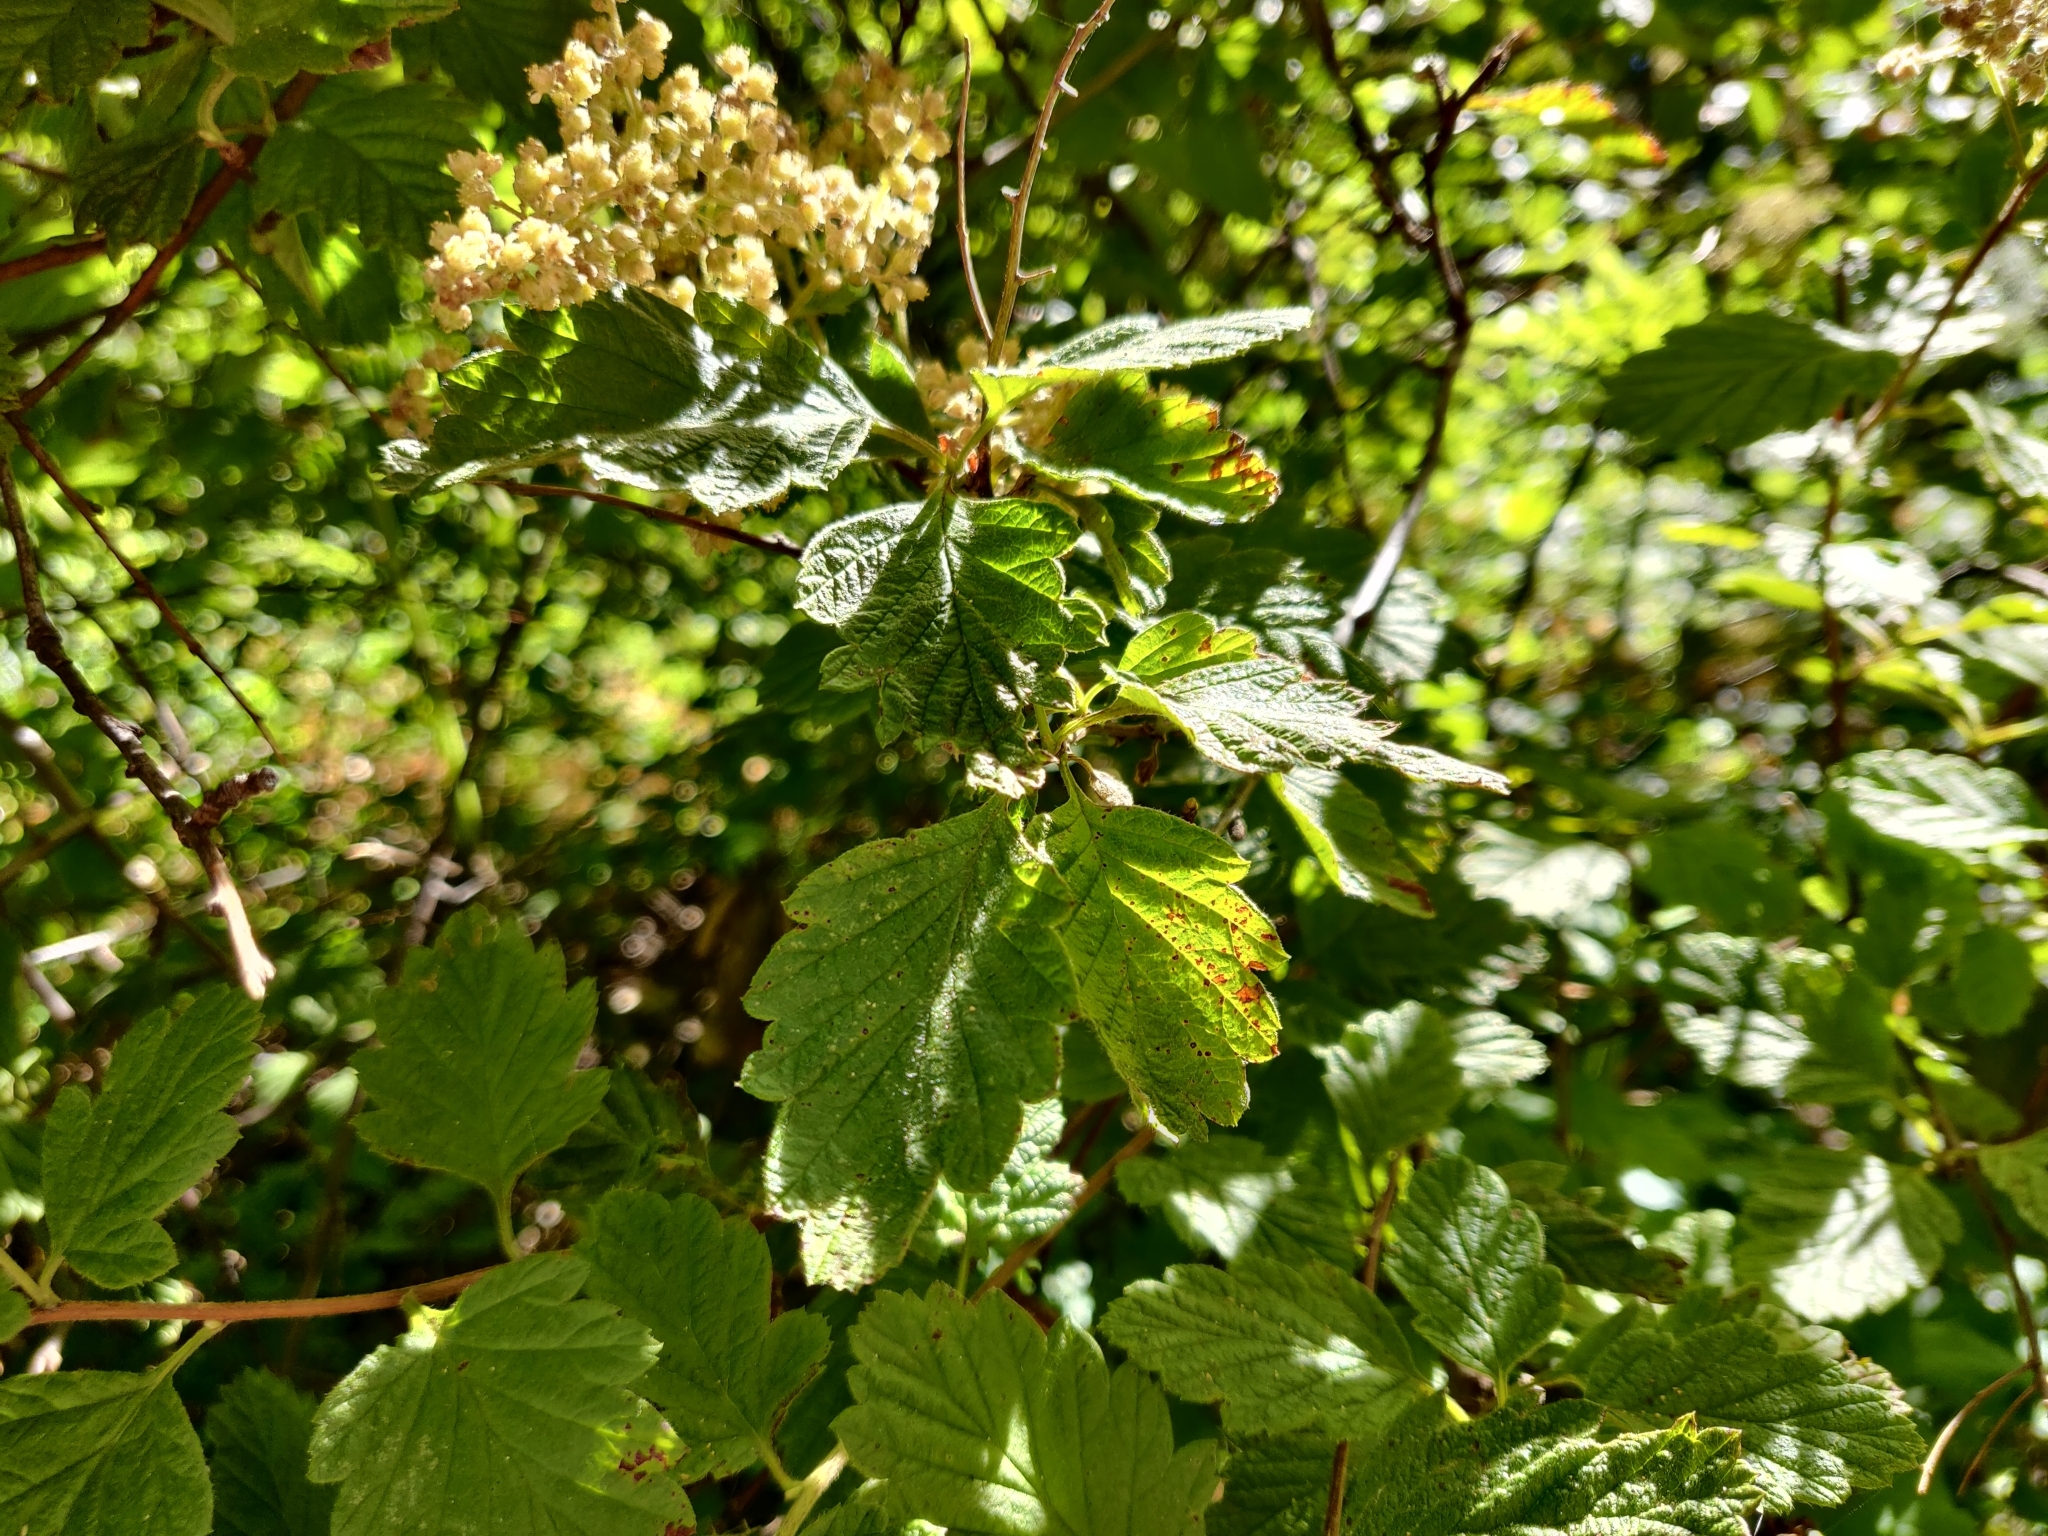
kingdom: Plantae
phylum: Tracheophyta
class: Magnoliopsida
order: Rosales
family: Rosaceae
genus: Holodiscus
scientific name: Holodiscus discolor
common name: Oceanspray
